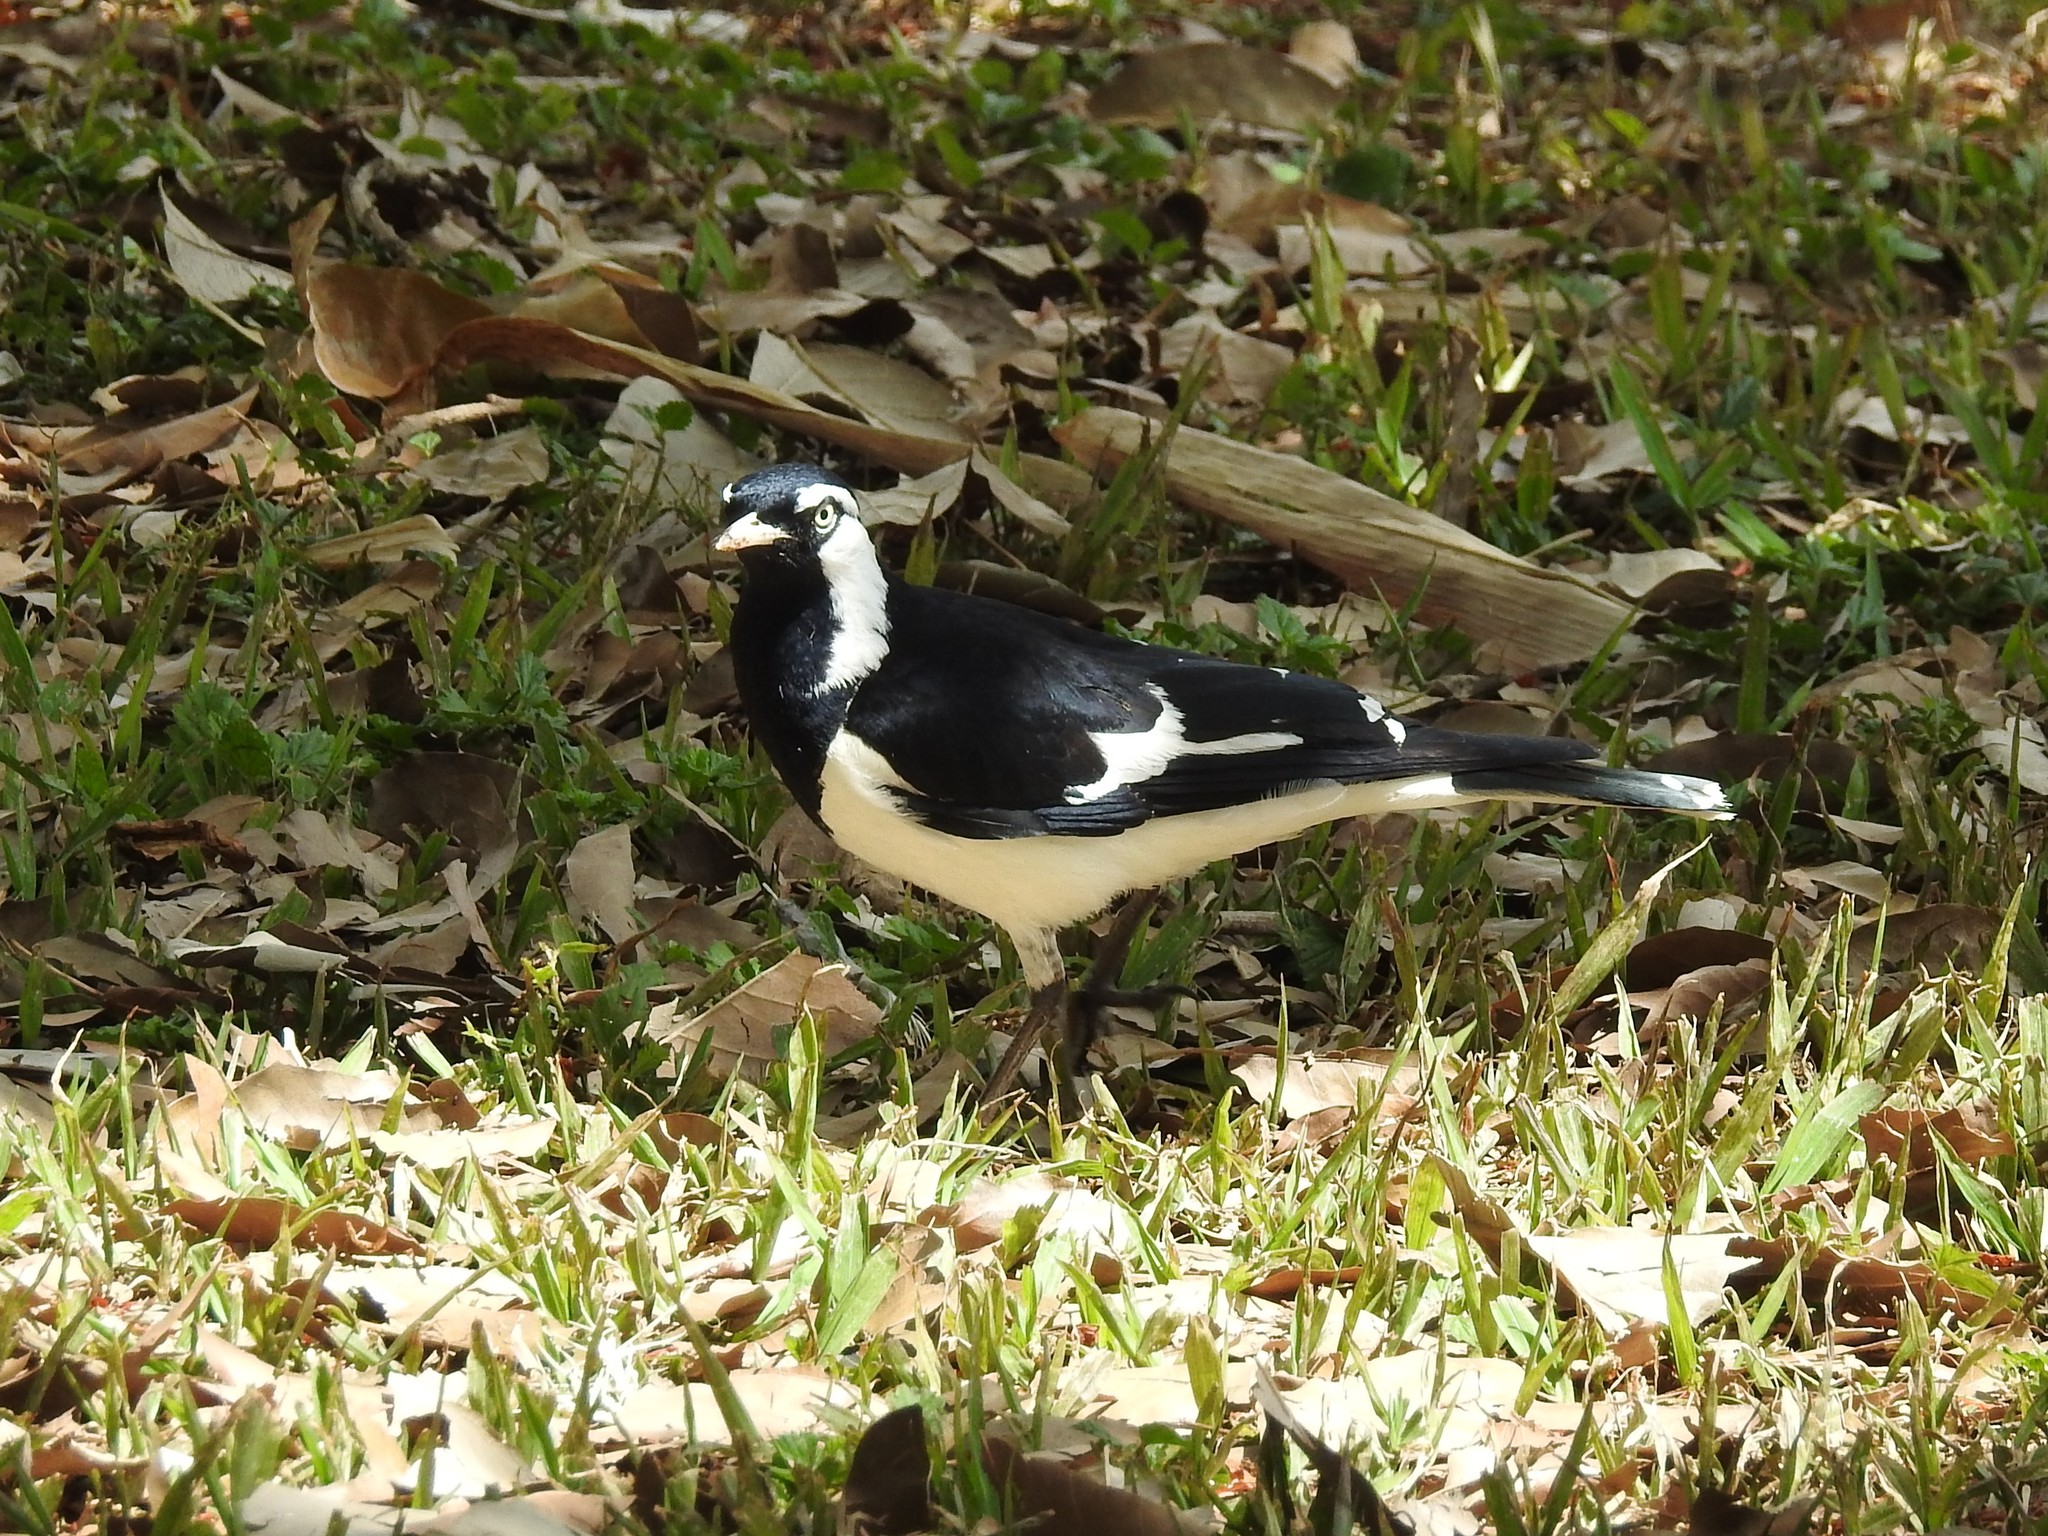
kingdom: Animalia
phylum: Chordata
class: Aves
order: Passeriformes
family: Monarchidae
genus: Grallina
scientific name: Grallina cyanoleuca
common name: Magpie-lark
